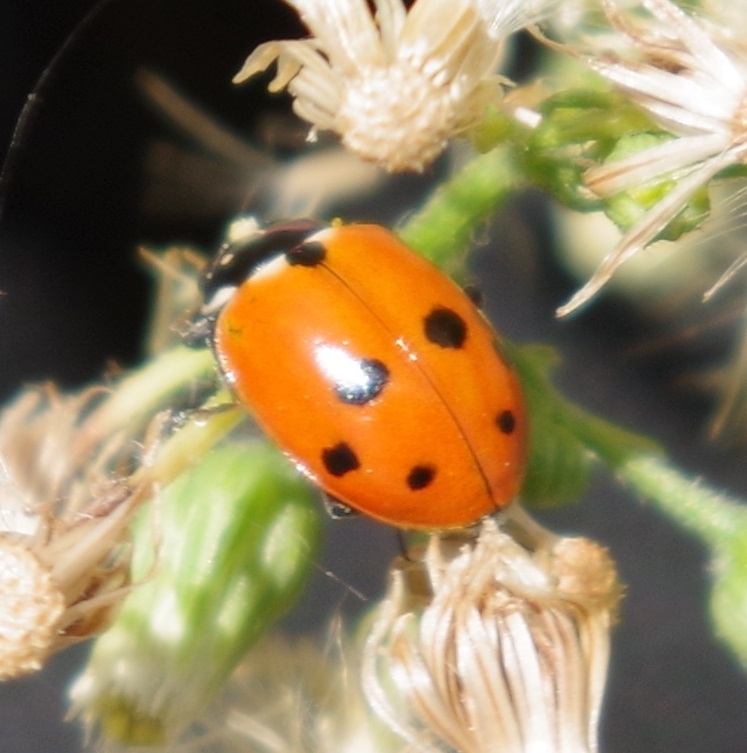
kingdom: Animalia
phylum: Arthropoda
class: Insecta
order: Coleoptera
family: Coccinellidae
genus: Hippodamia
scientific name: Hippodamia variegata
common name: Ladybird beetle
